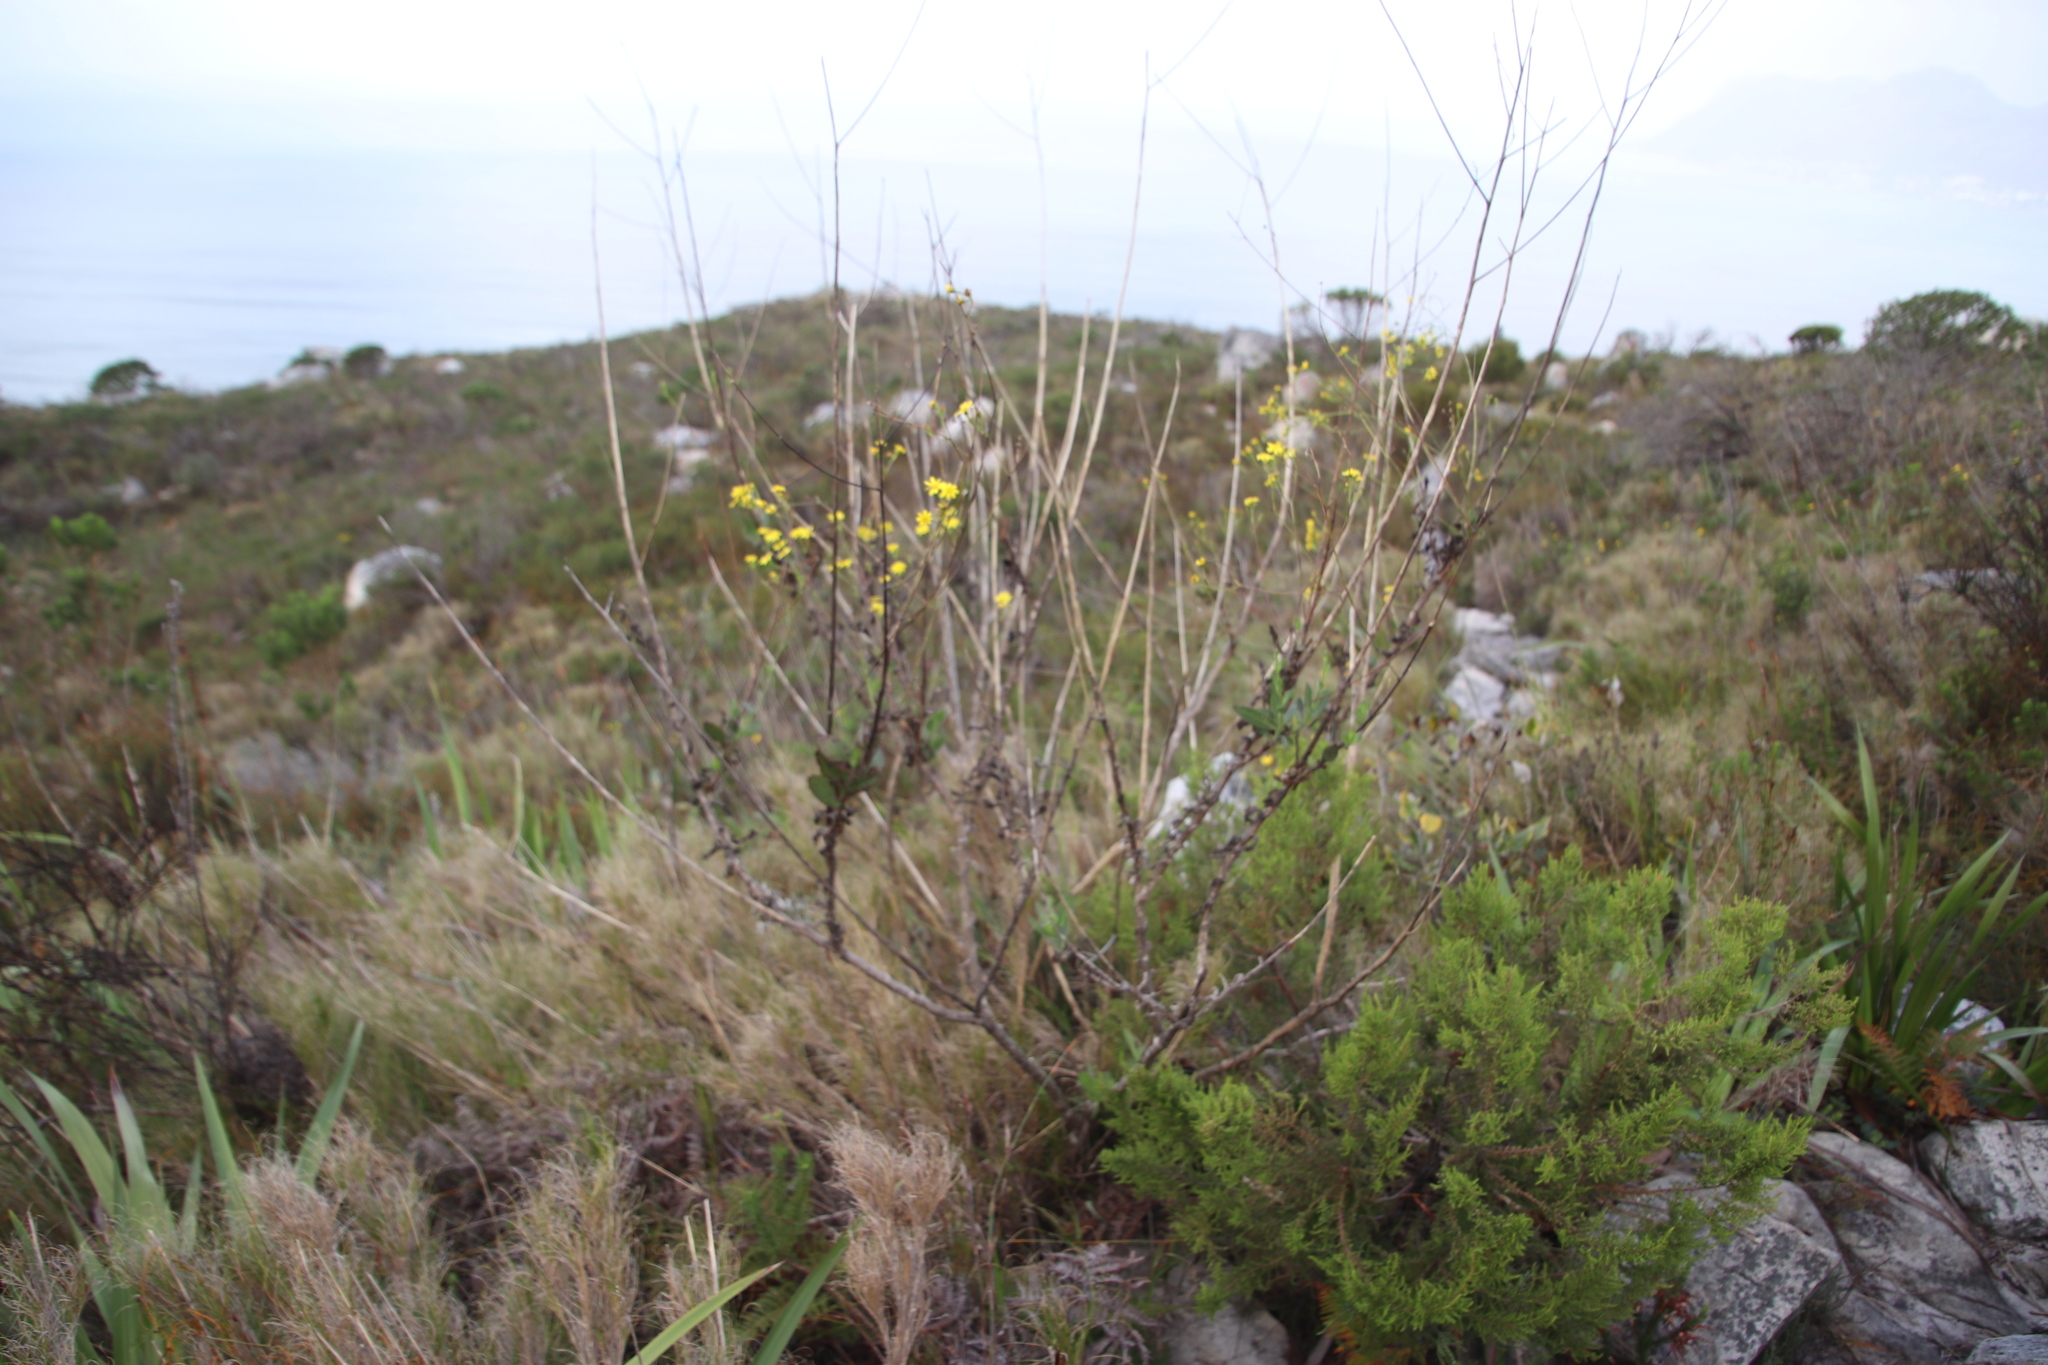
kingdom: Plantae
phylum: Tracheophyta
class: Magnoliopsida
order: Asterales
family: Asteraceae
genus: Othonna
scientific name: Othonna quinquedentata
